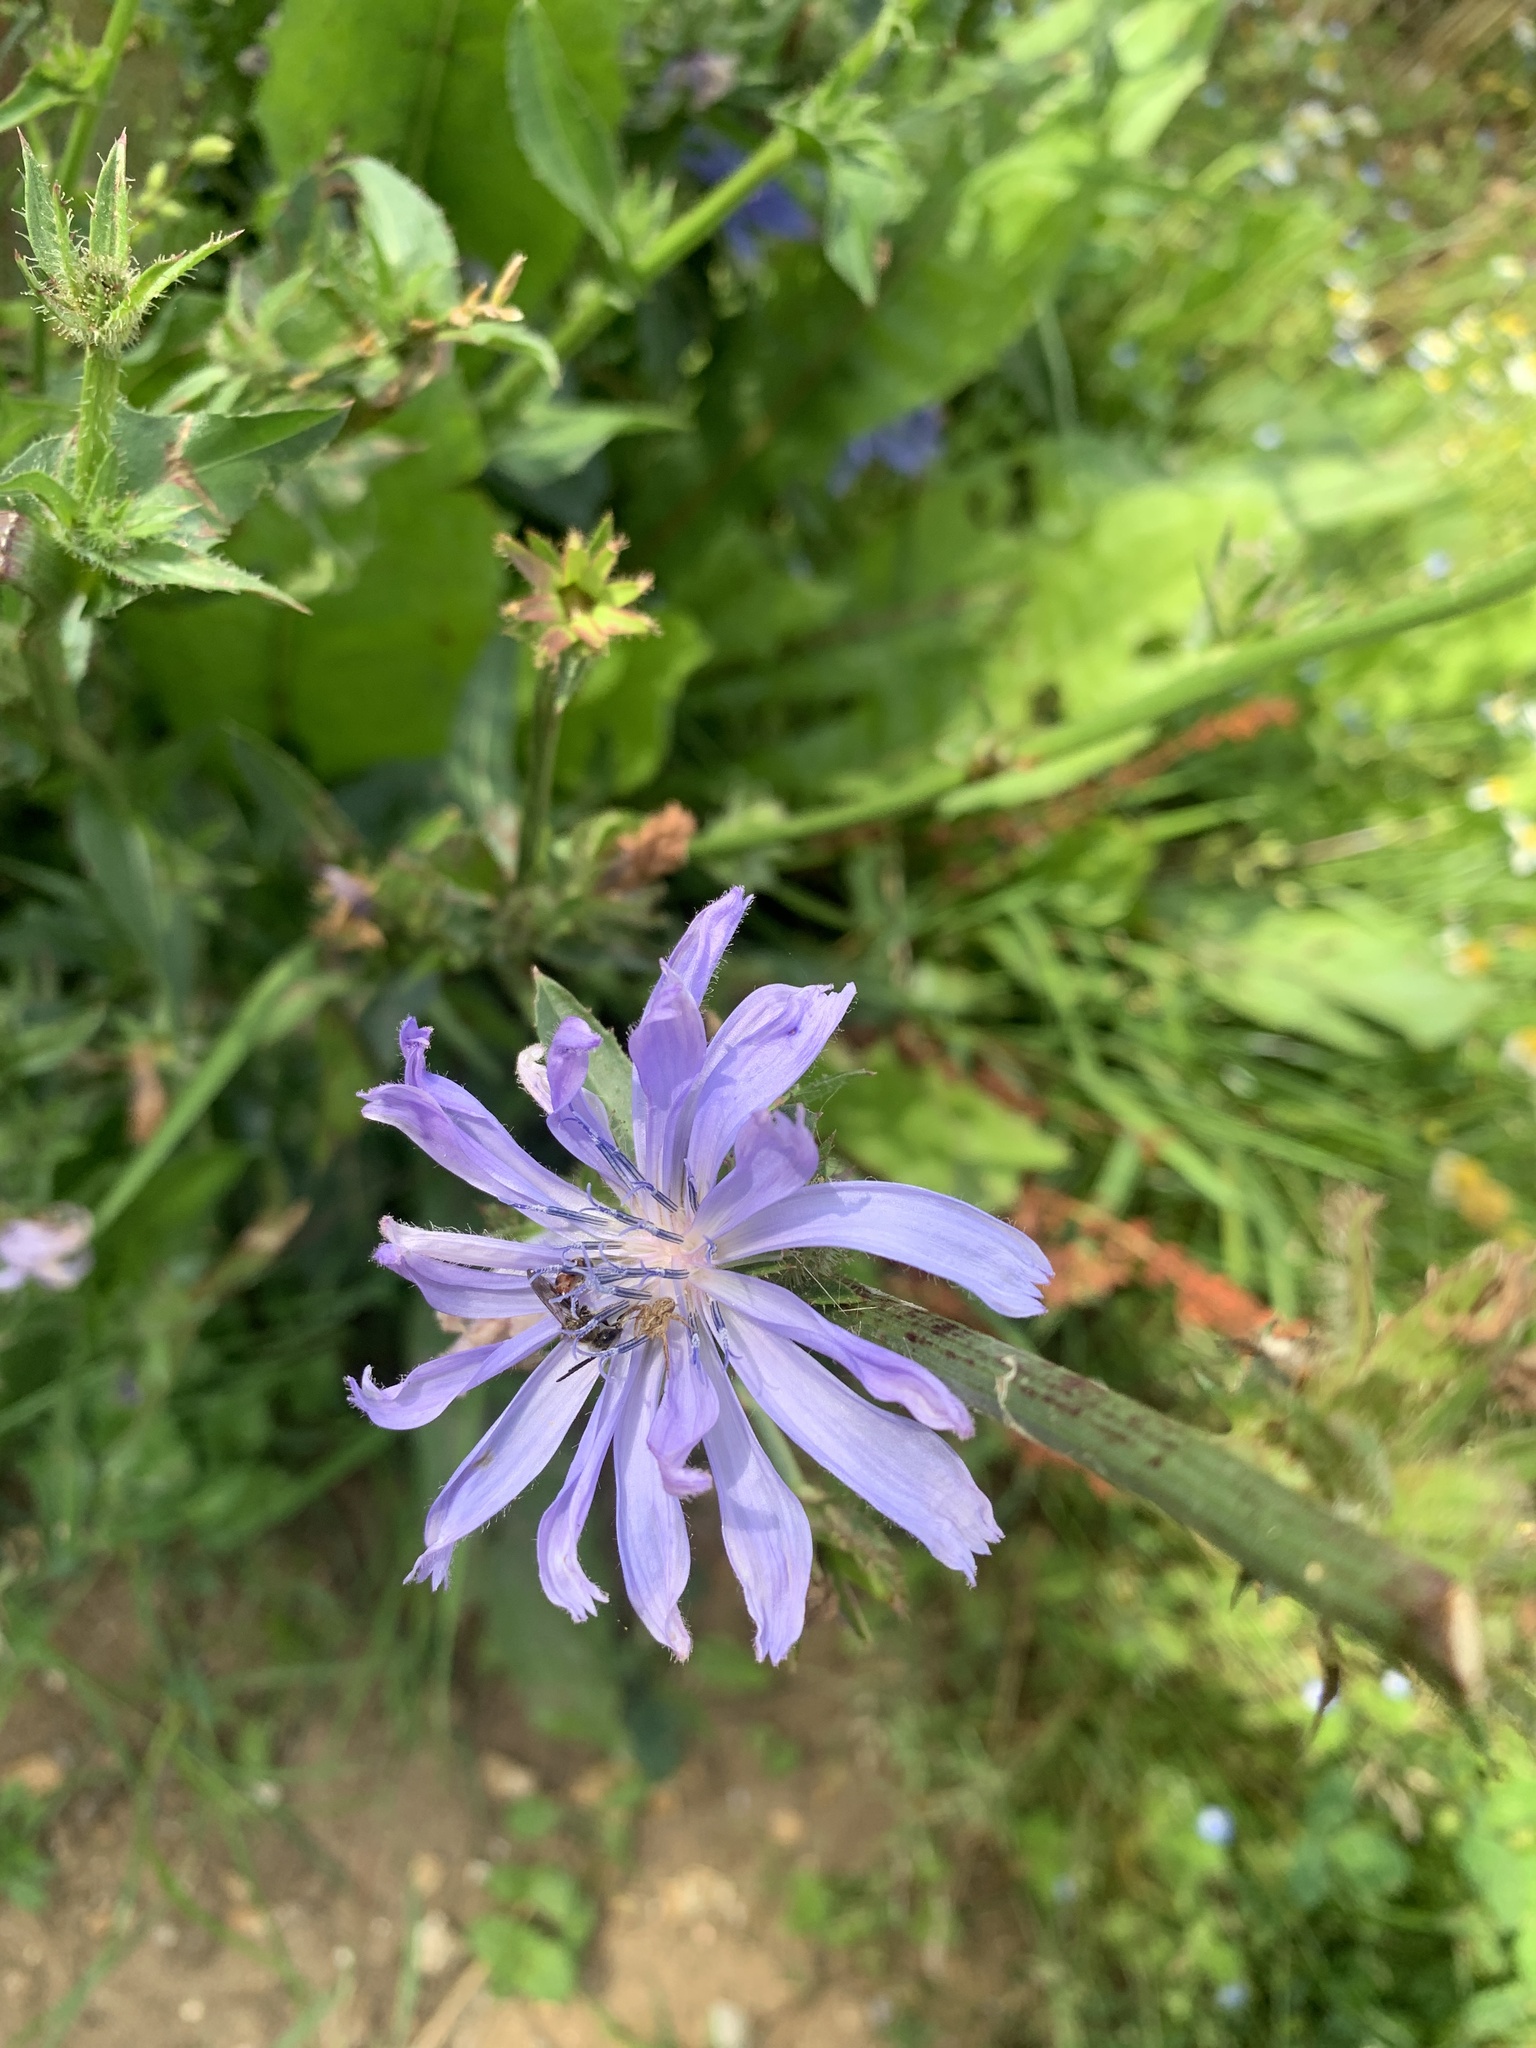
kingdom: Plantae
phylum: Tracheophyta
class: Magnoliopsida
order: Asterales
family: Asteraceae
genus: Cichorium
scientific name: Cichorium intybus
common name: Chicory
